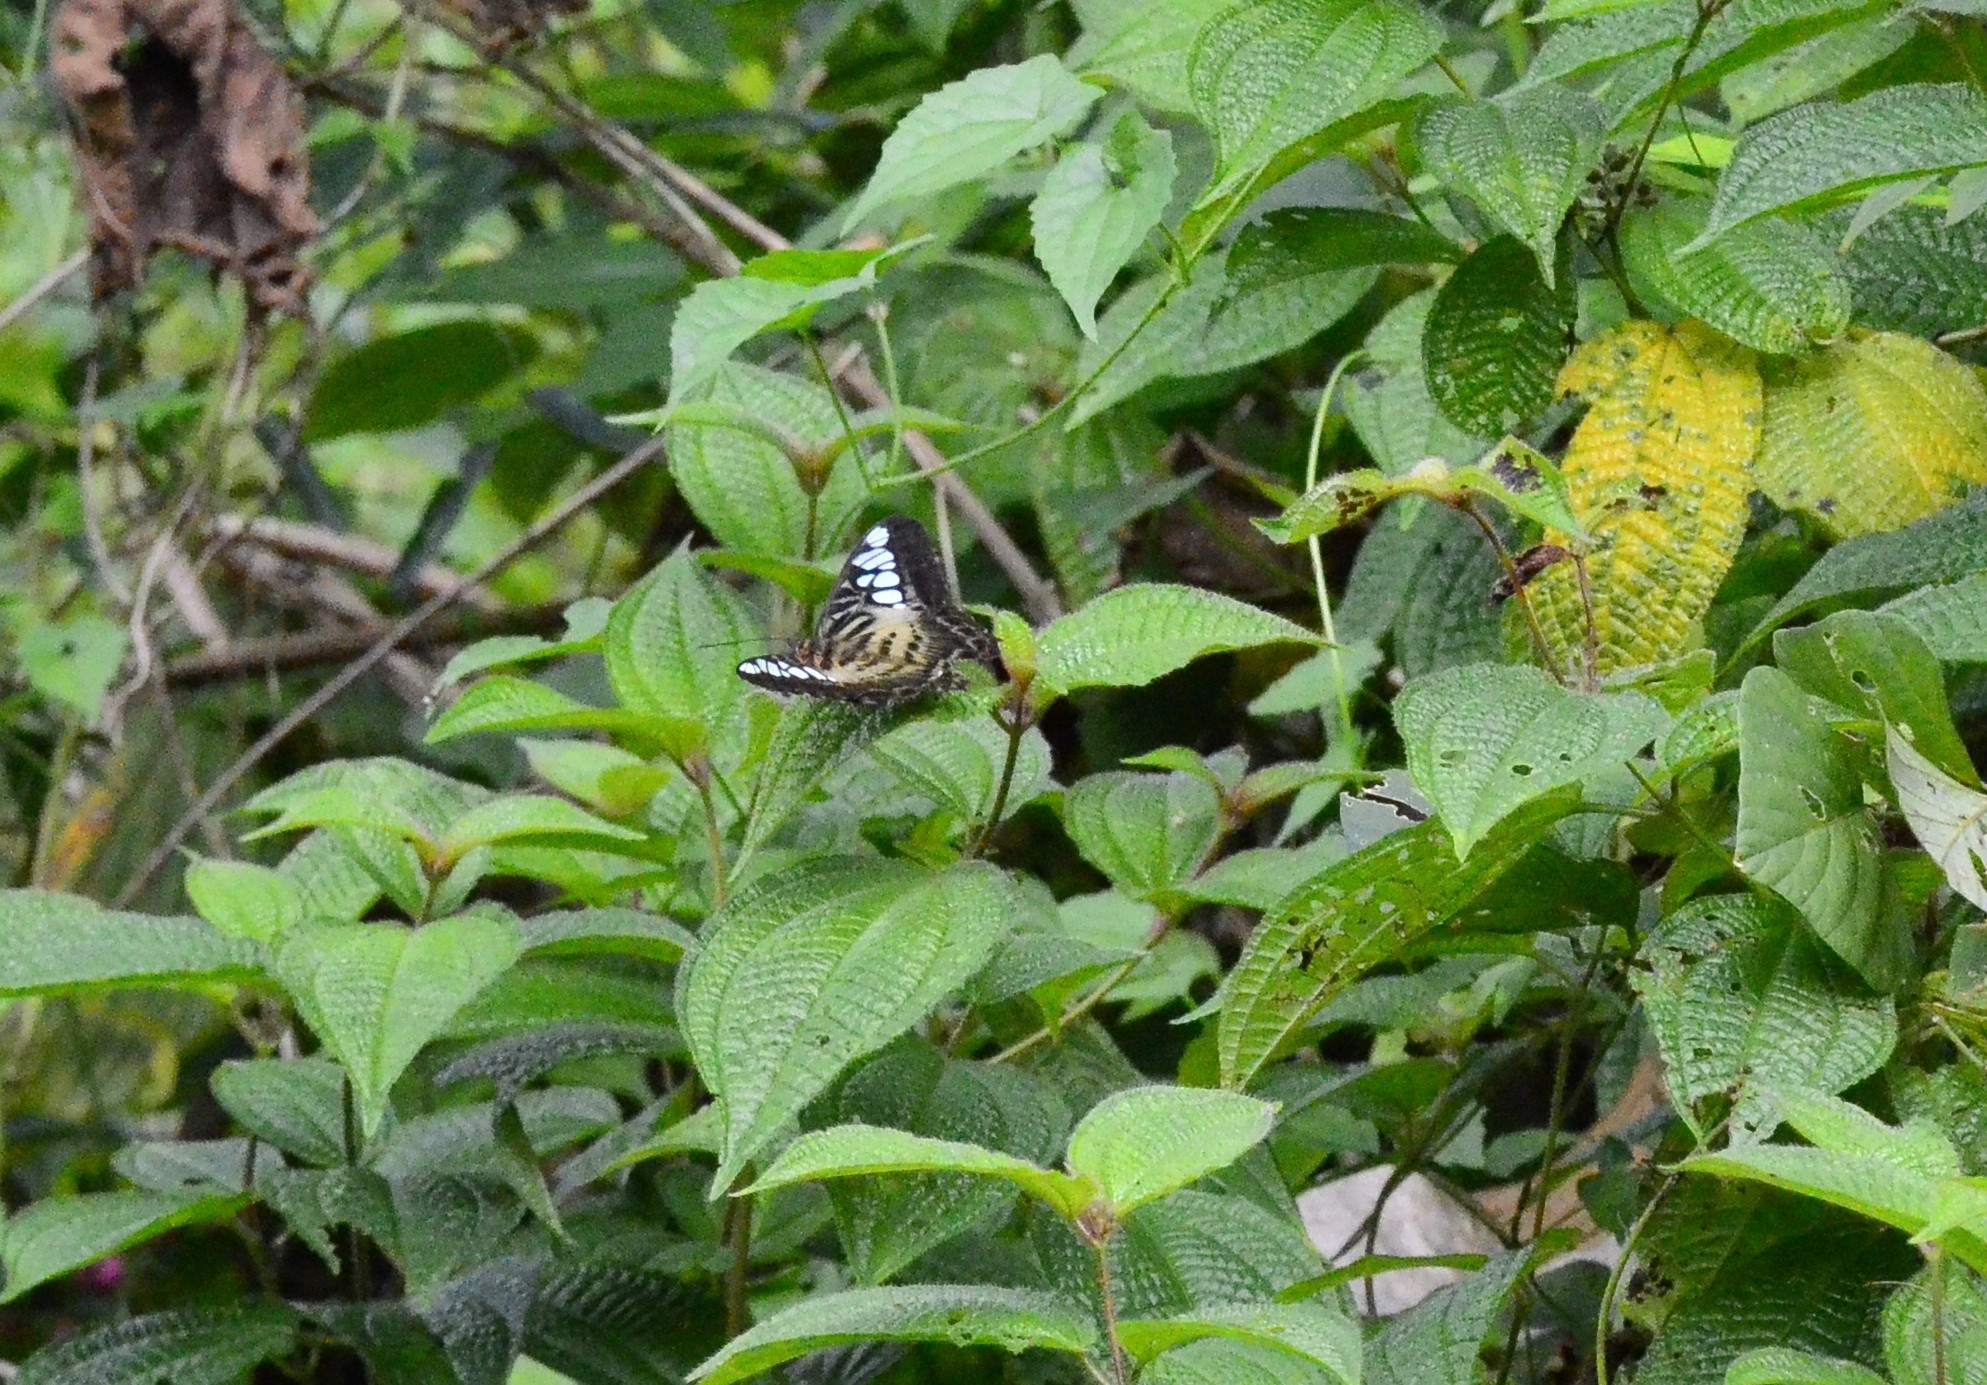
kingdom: Animalia
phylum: Arthropoda
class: Insecta
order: Lepidoptera
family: Nymphalidae
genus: Kallima
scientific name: Kallima sylvia
